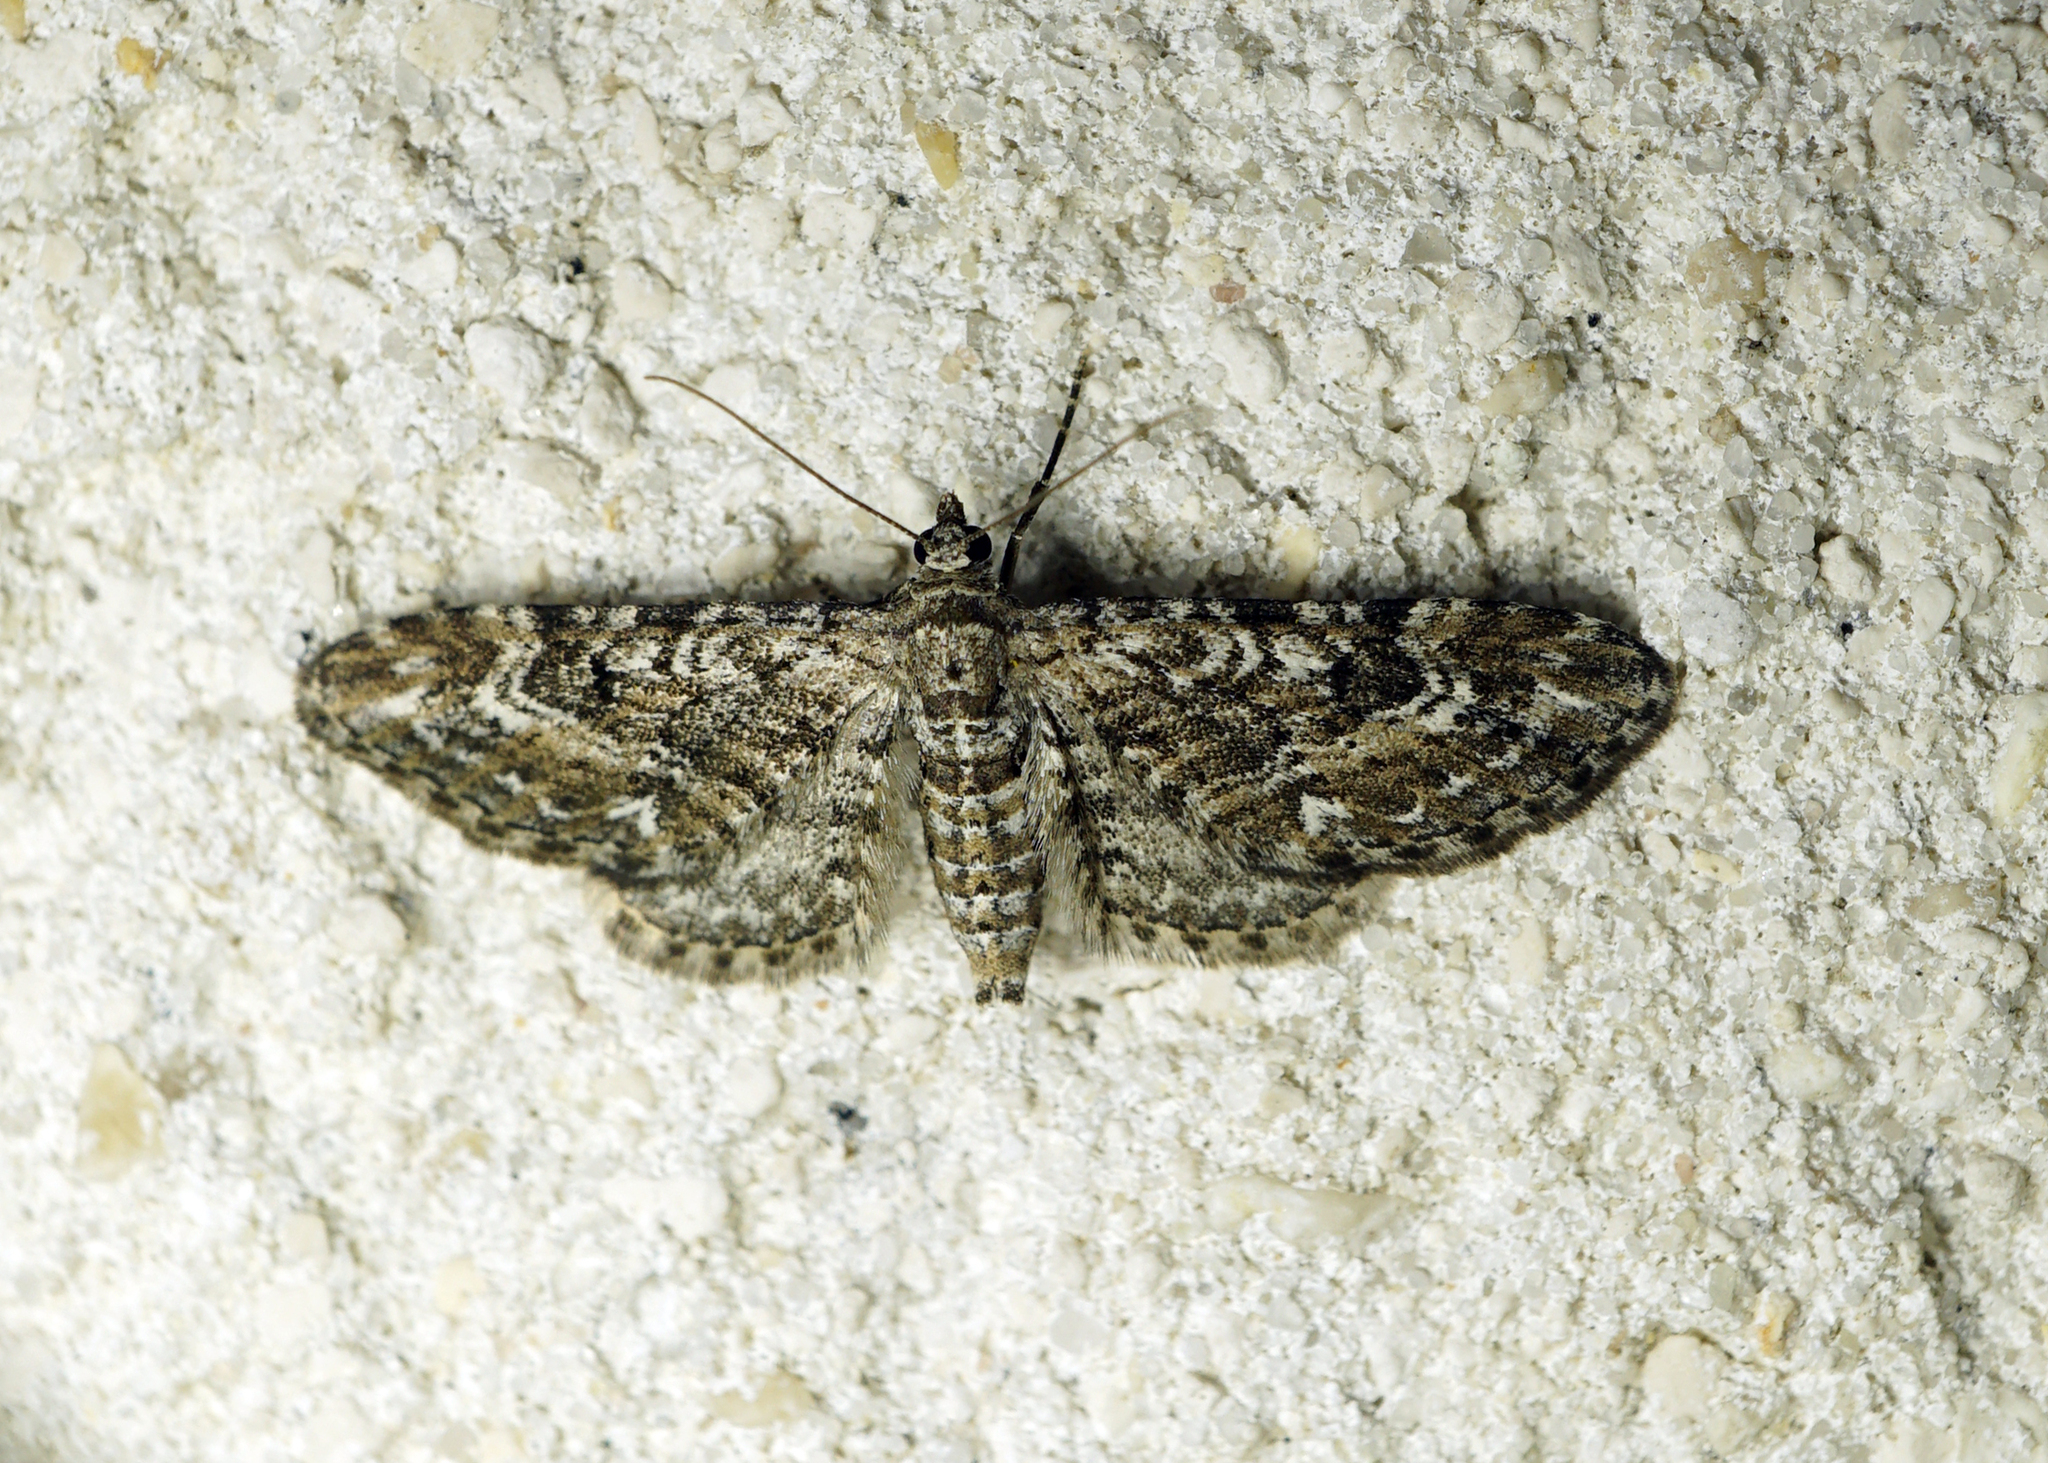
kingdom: Animalia
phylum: Arthropoda
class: Insecta
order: Lepidoptera
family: Geometridae
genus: Eupithecia
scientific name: Eupithecia nanata
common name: Narrow-winged pug
